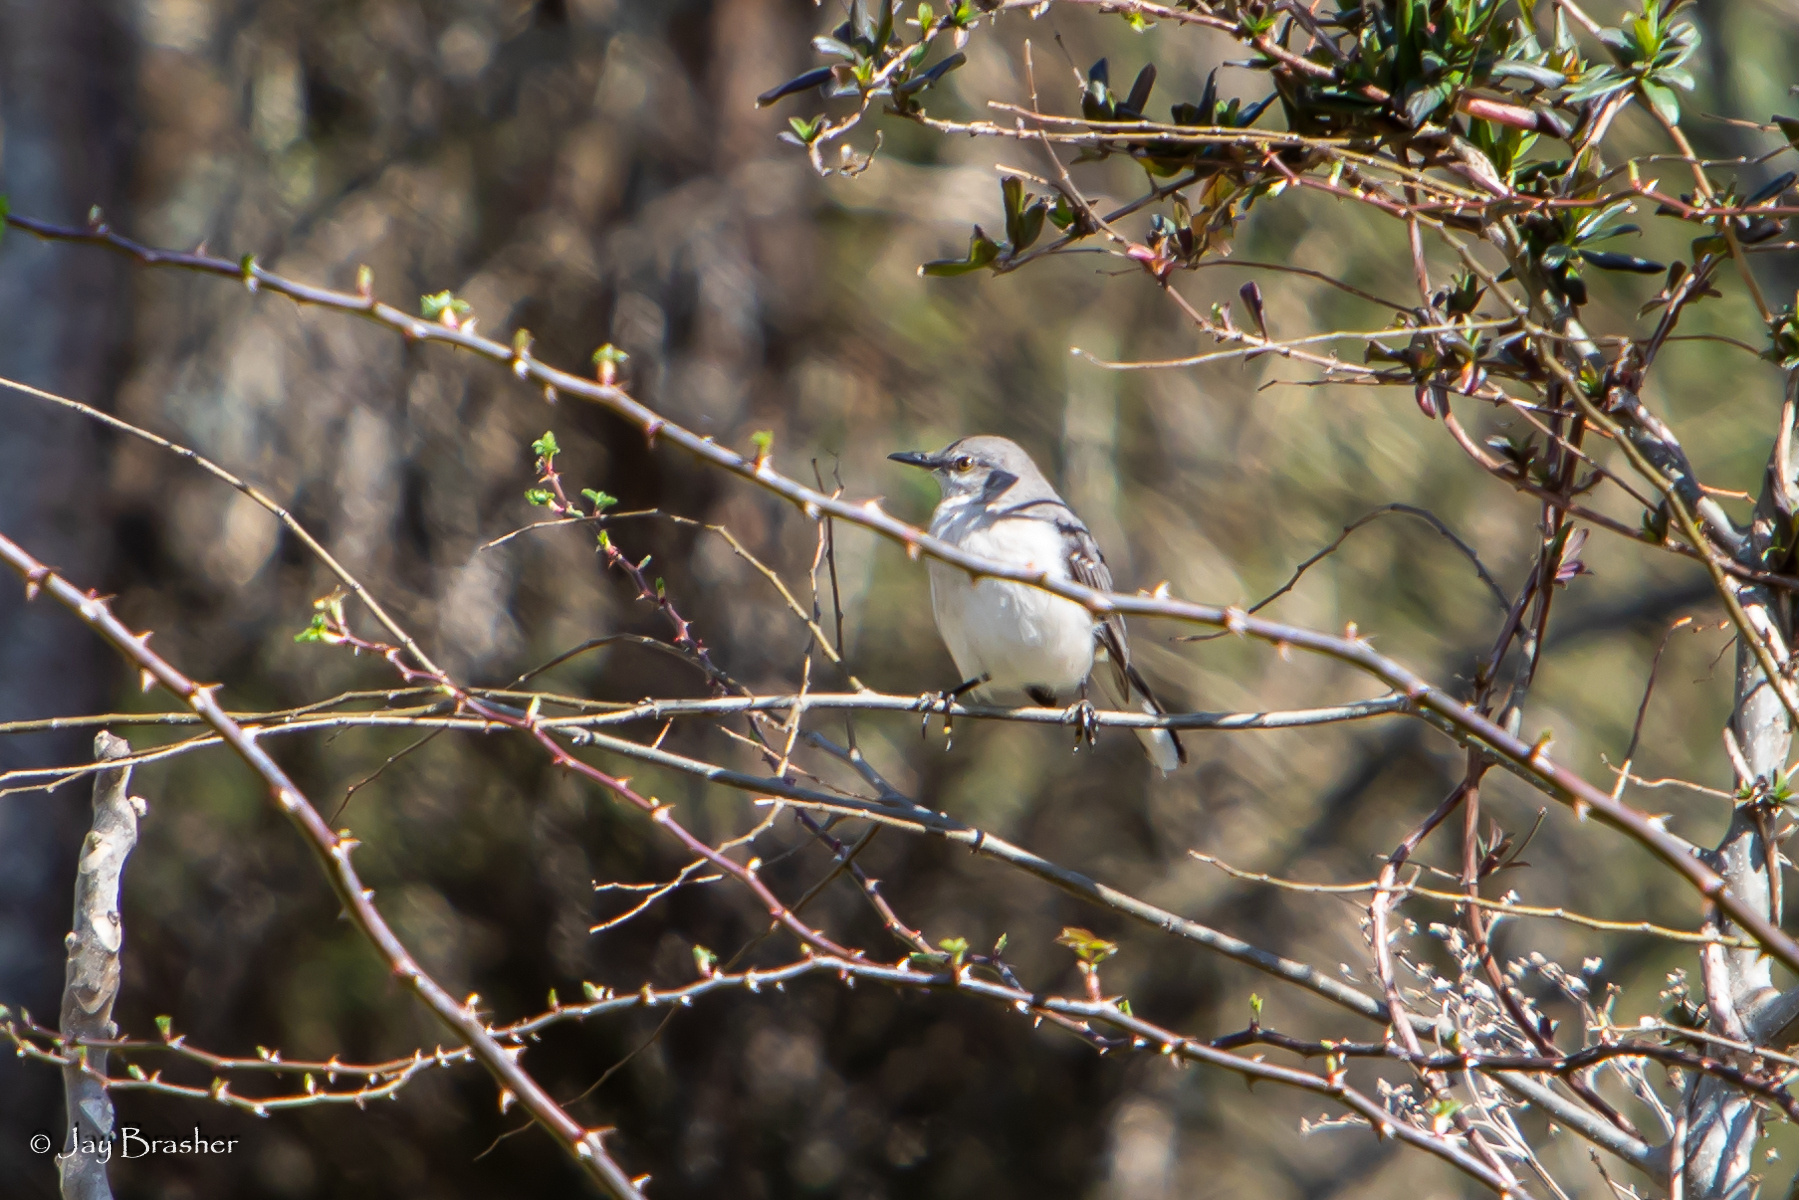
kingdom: Animalia
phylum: Chordata
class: Aves
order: Passeriformes
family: Mimidae
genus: Mimus
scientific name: Mimus polyglottos
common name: Northern mockingbird
